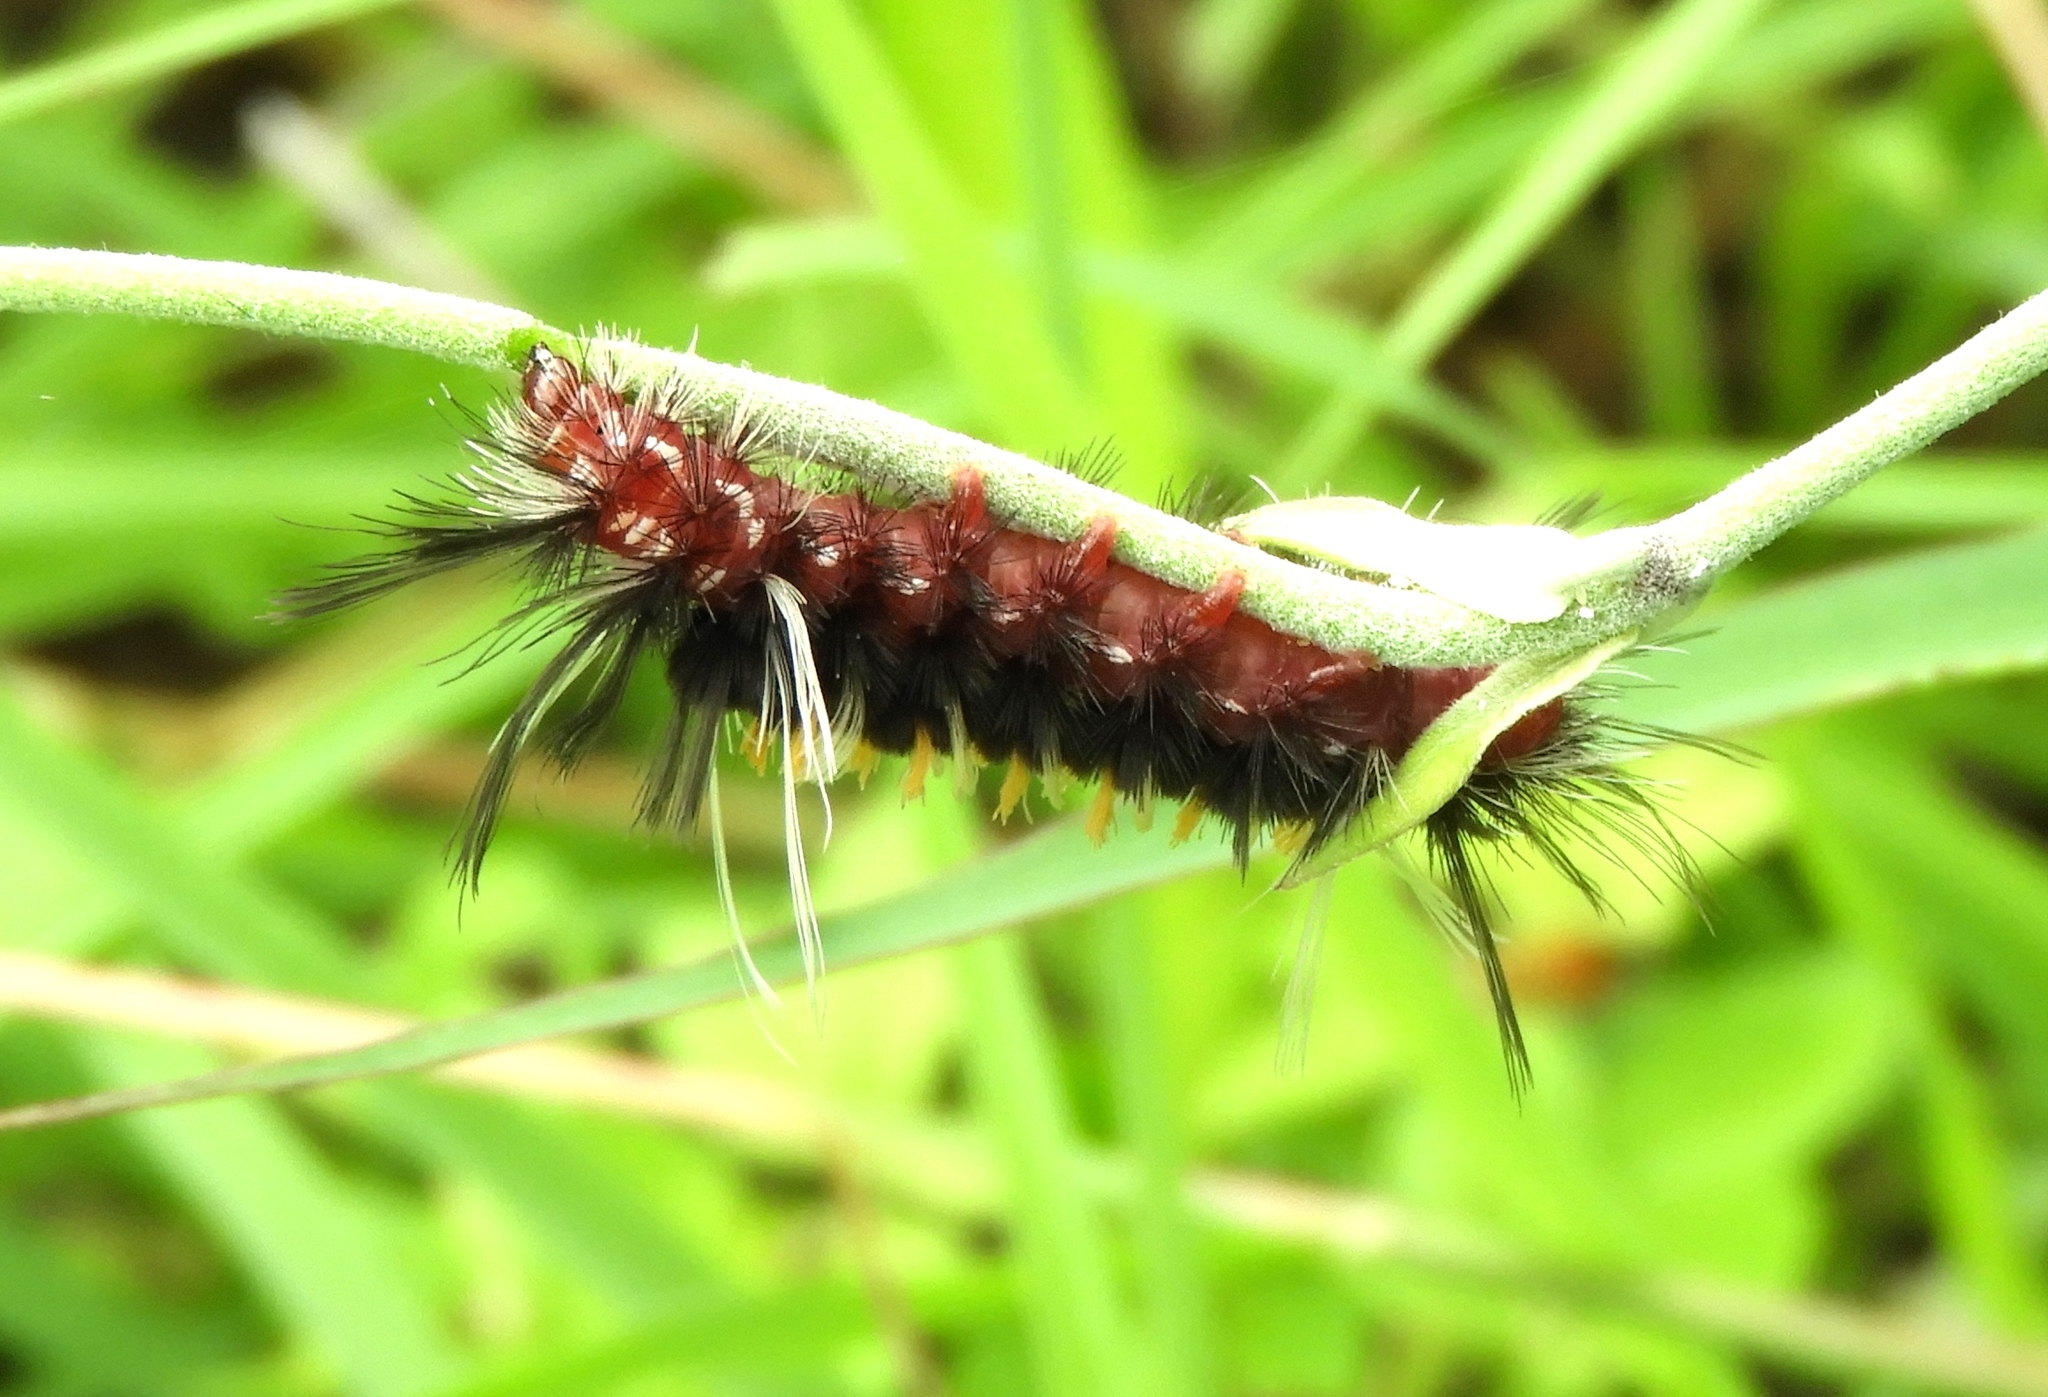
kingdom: Animalia
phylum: Arthropoda
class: Insecta
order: Lepidoptera
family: Erebidae
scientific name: Erebidae
